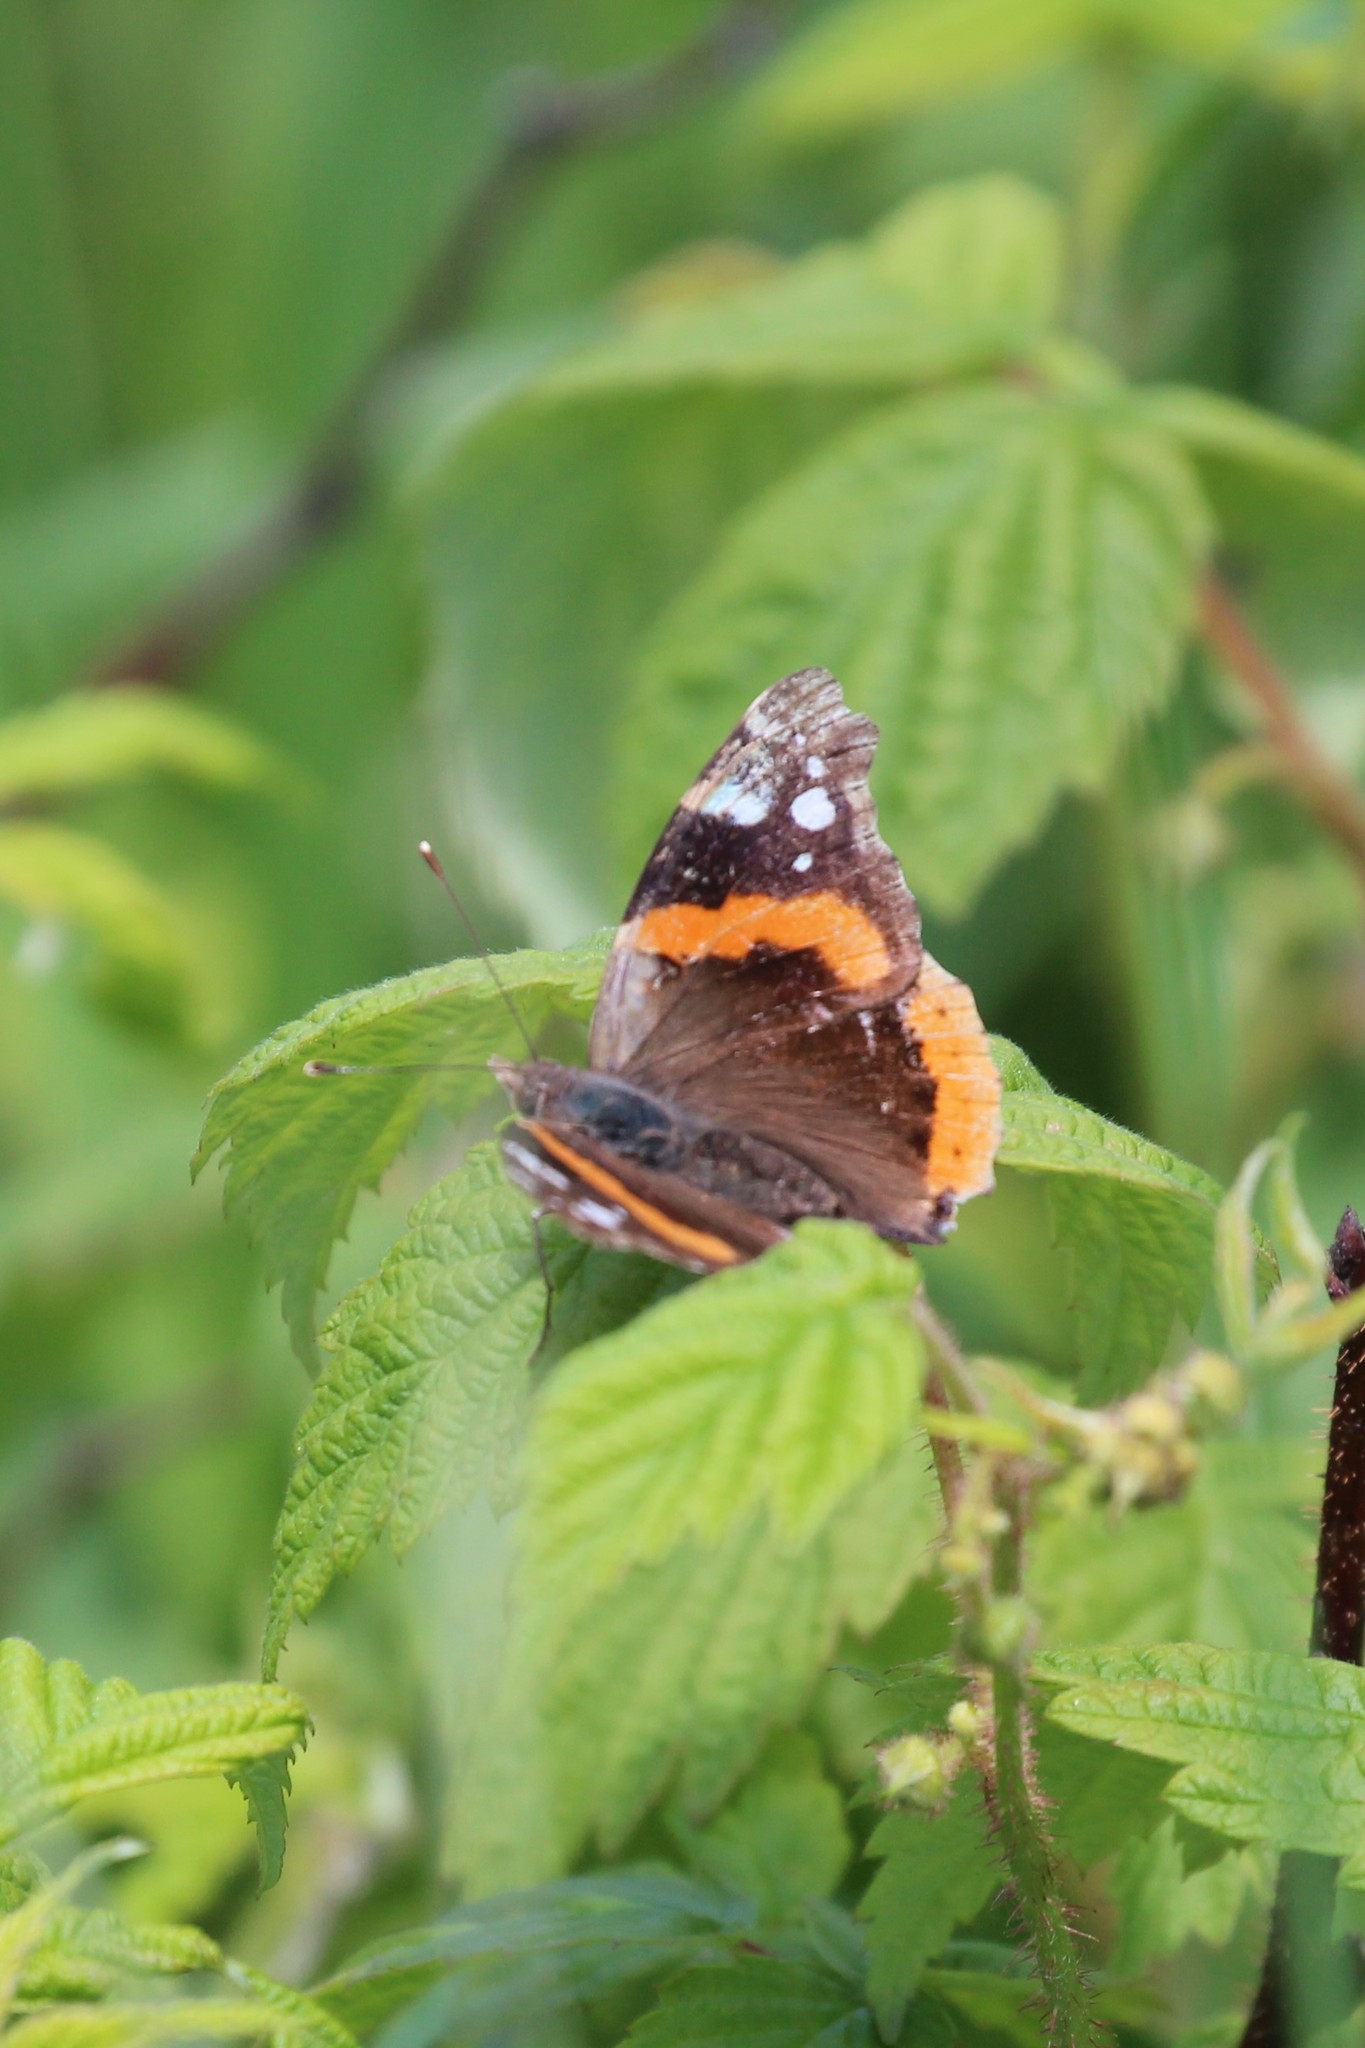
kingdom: Animalia
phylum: Arthropoda
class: Insecta
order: Lepidoptera
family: Nymphalidae
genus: Vanessa
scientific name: Vanessa atalanta
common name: Red admiral
